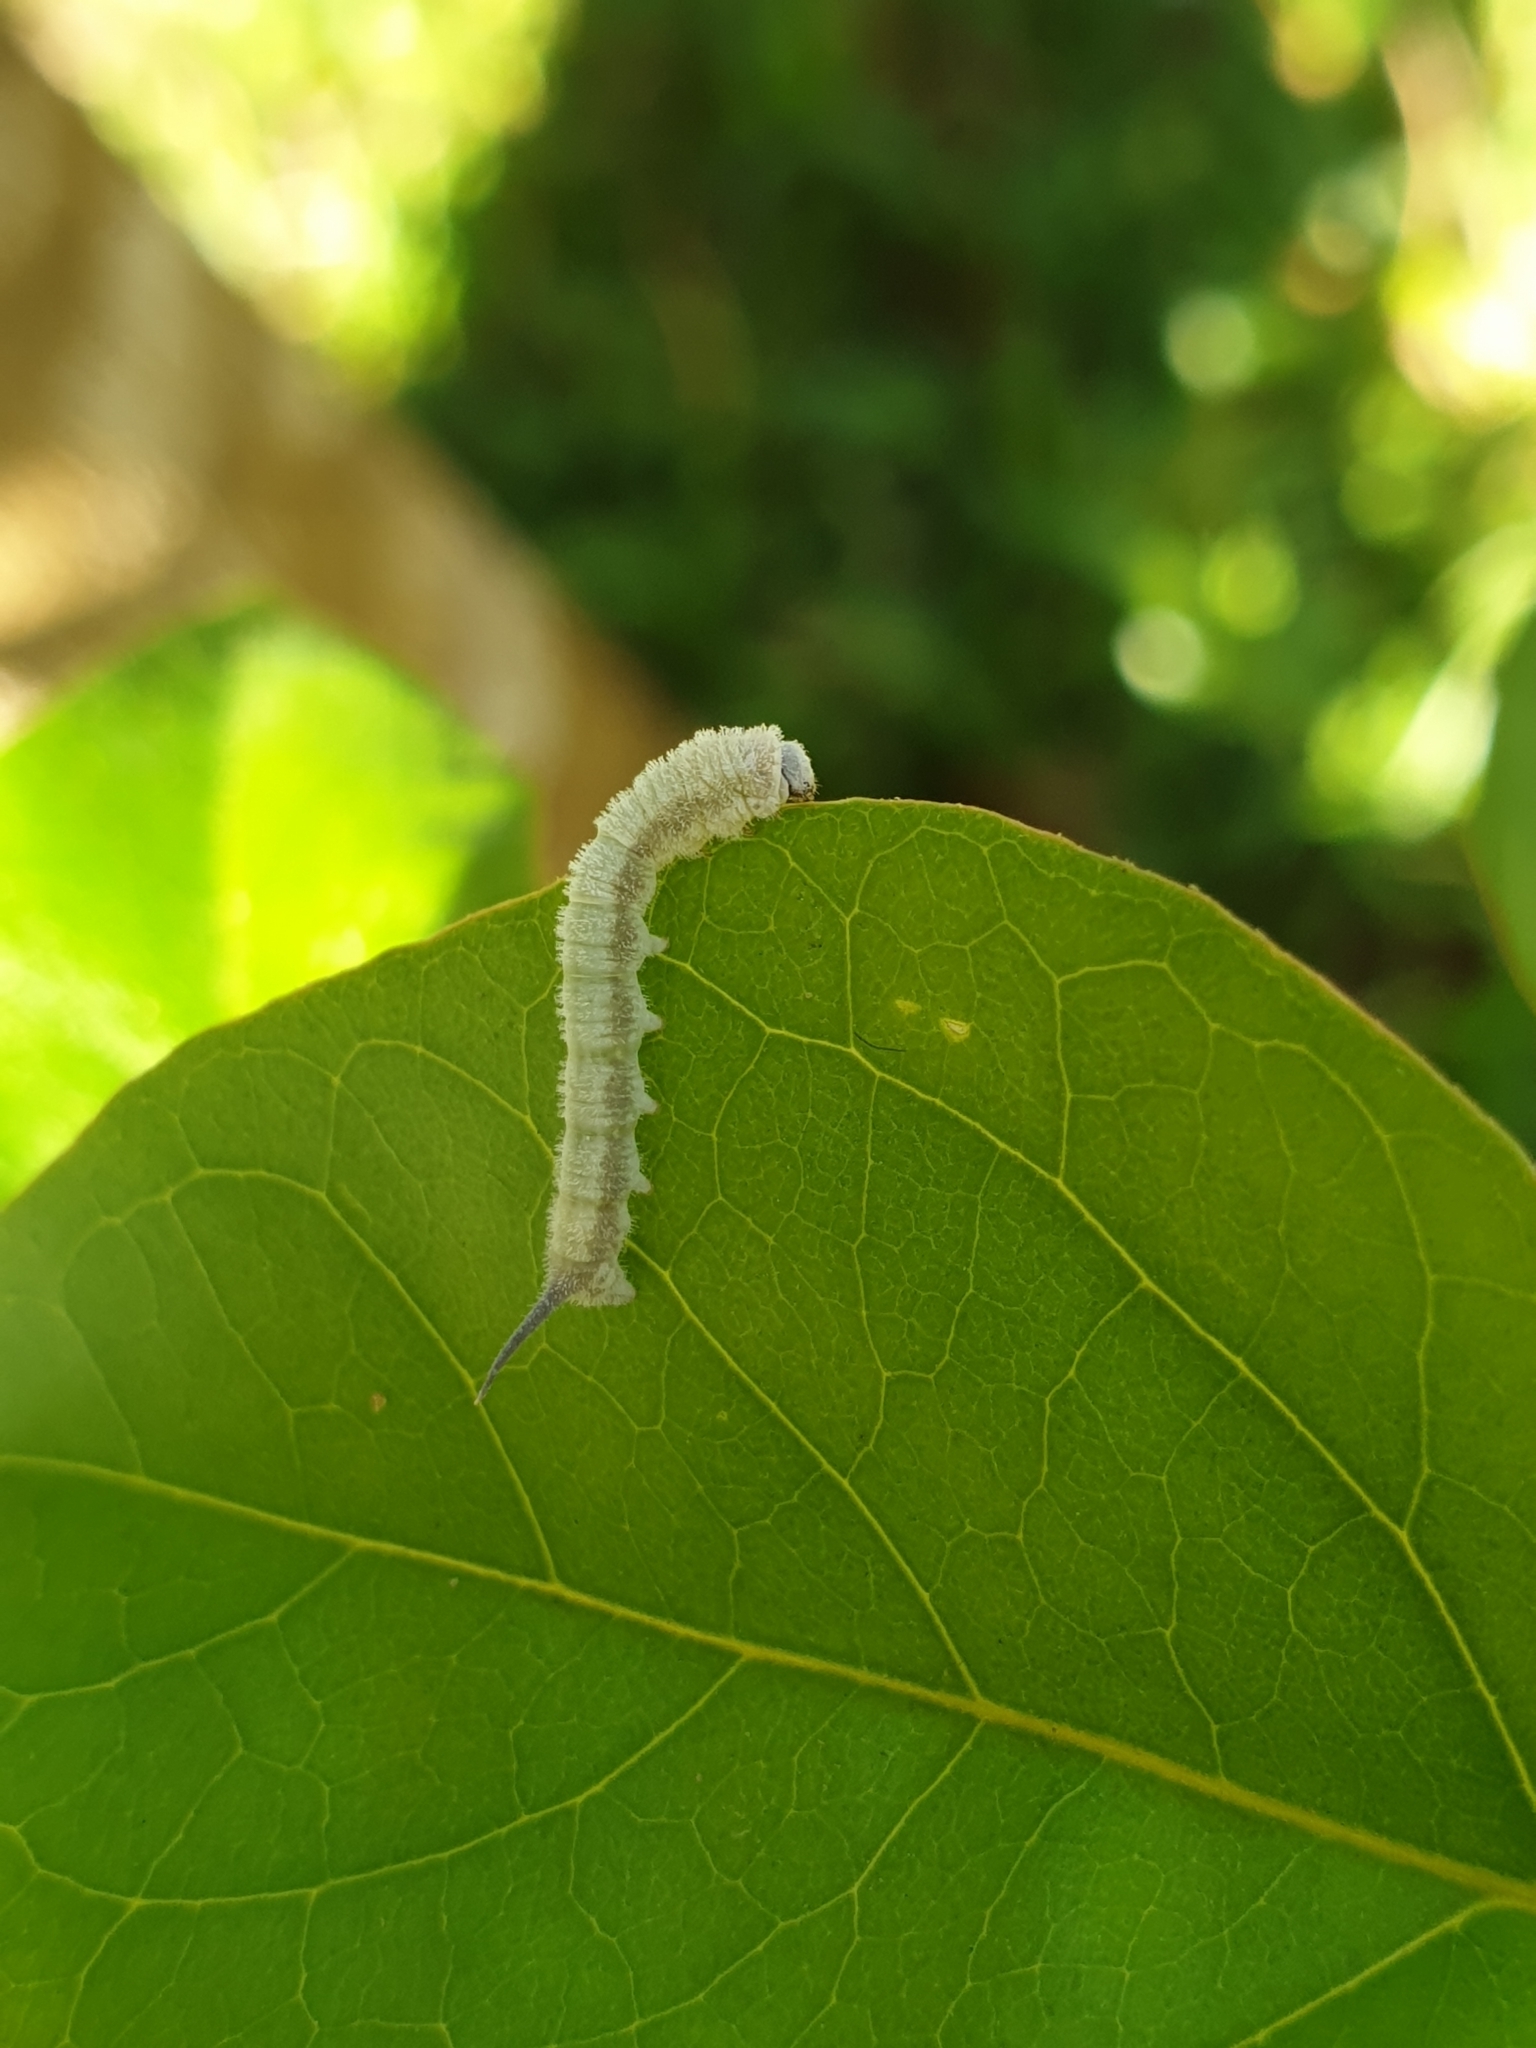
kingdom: Animalia
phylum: Arthropoda
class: Insecta
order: Lepidoptera
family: Bombycidae
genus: Trilocha
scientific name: Trilocha varians
